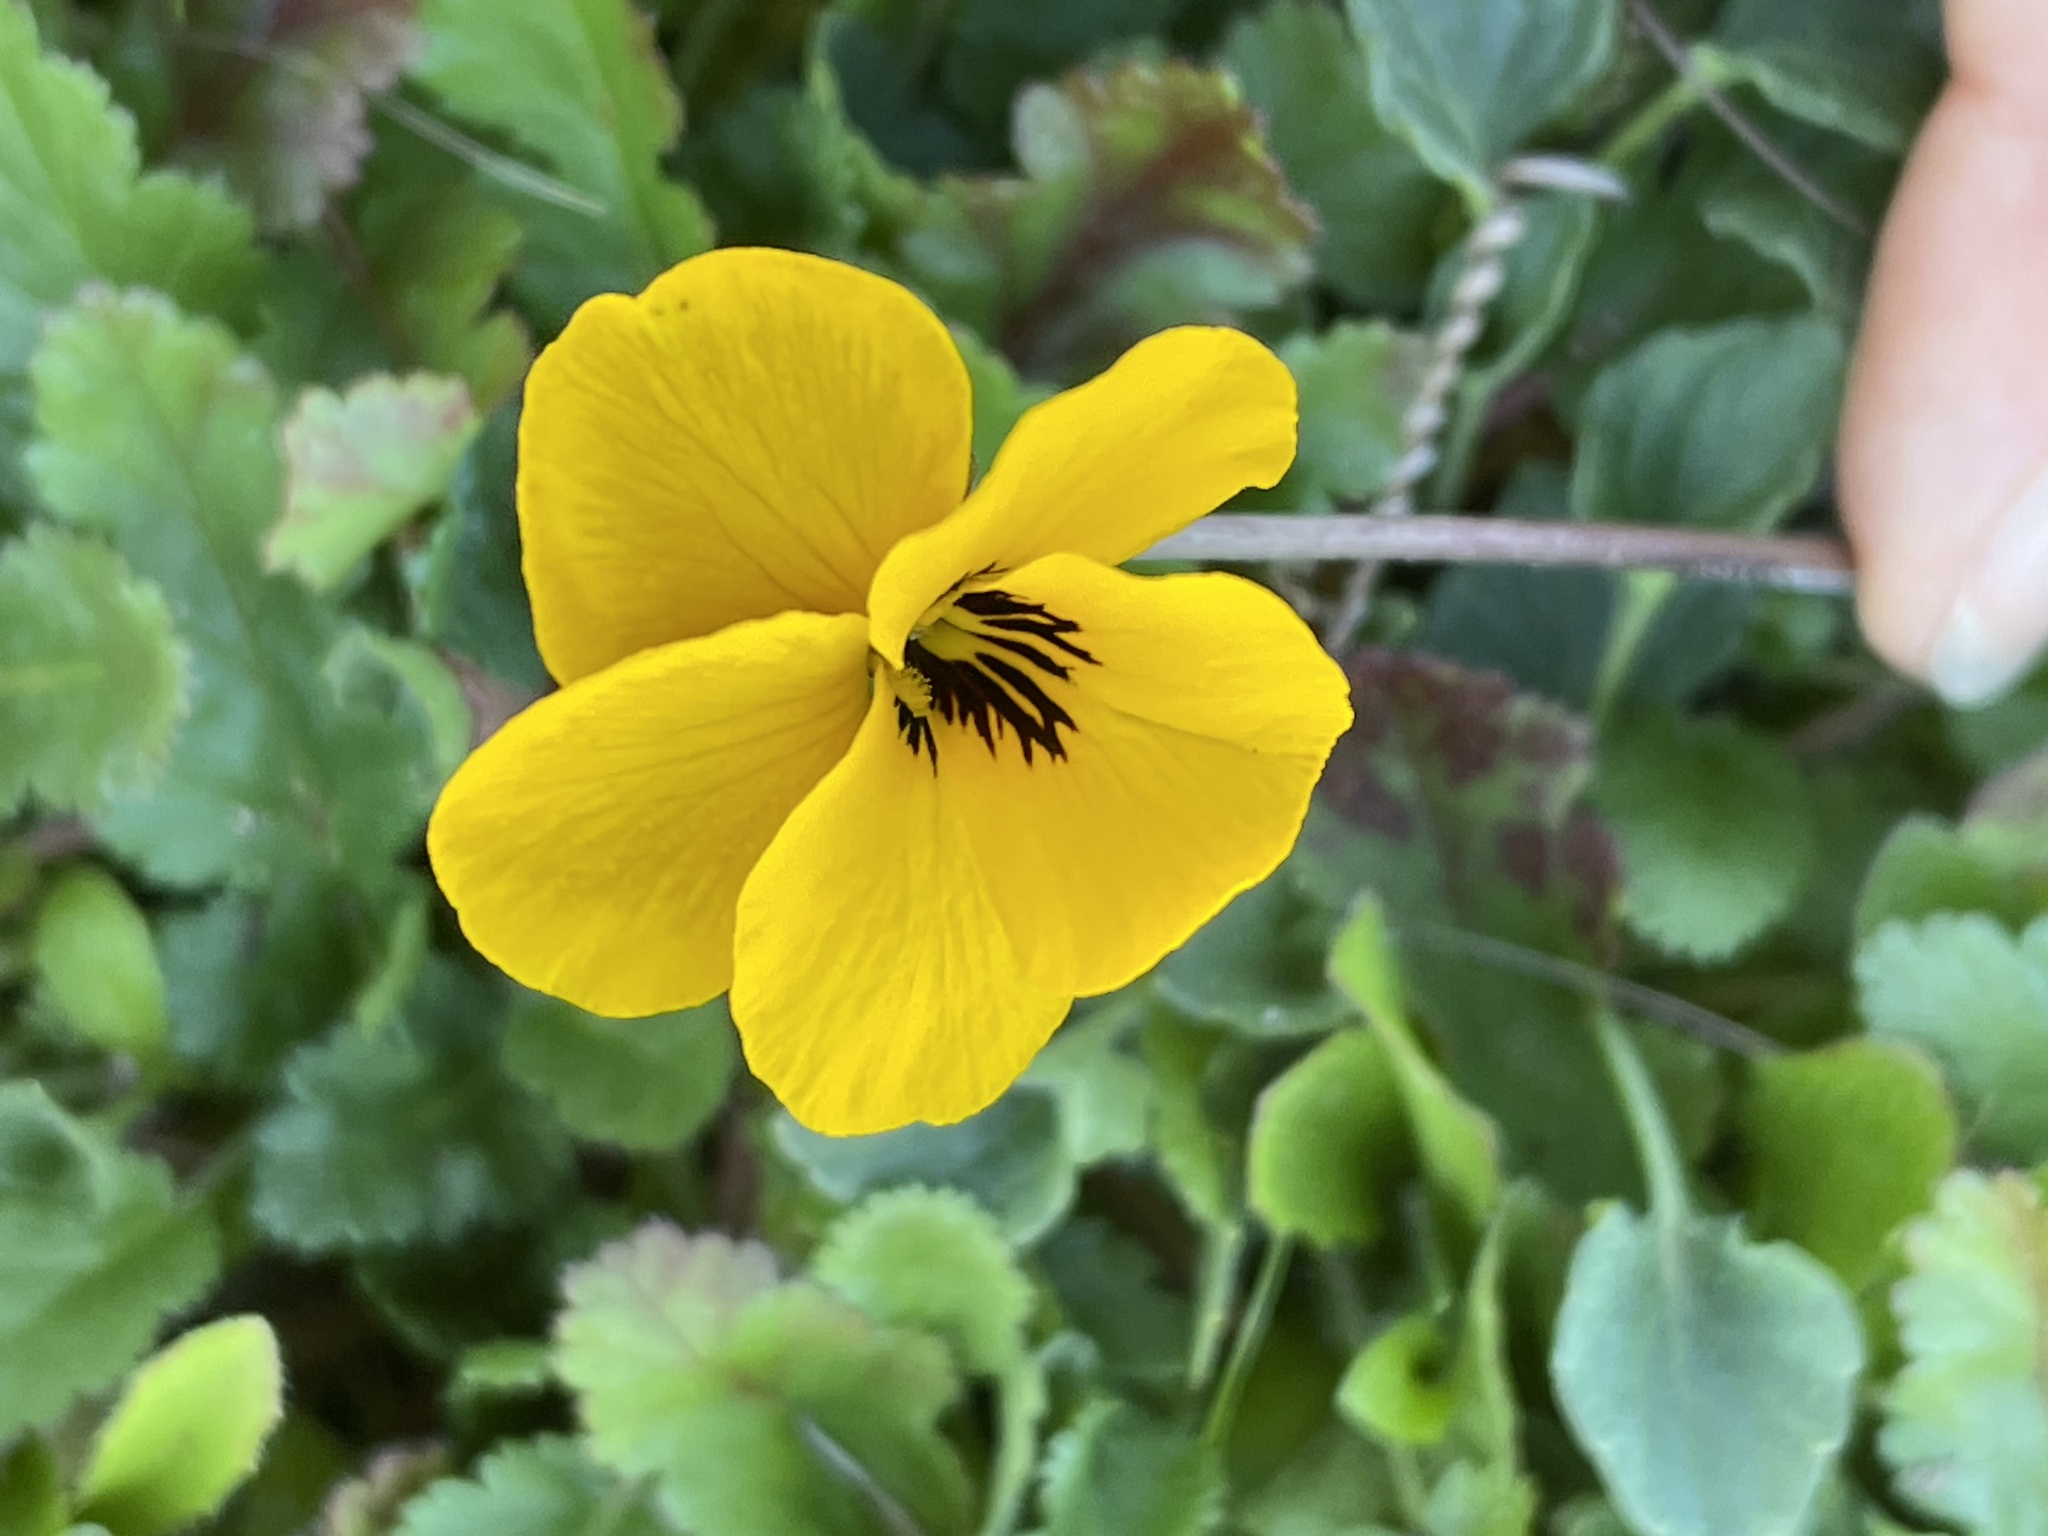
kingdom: Plantae
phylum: Tracheophyta
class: Magnoliopsida
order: Malpighiales
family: Violaceae
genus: Viola
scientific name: Viola pedunculata
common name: California golden violet
